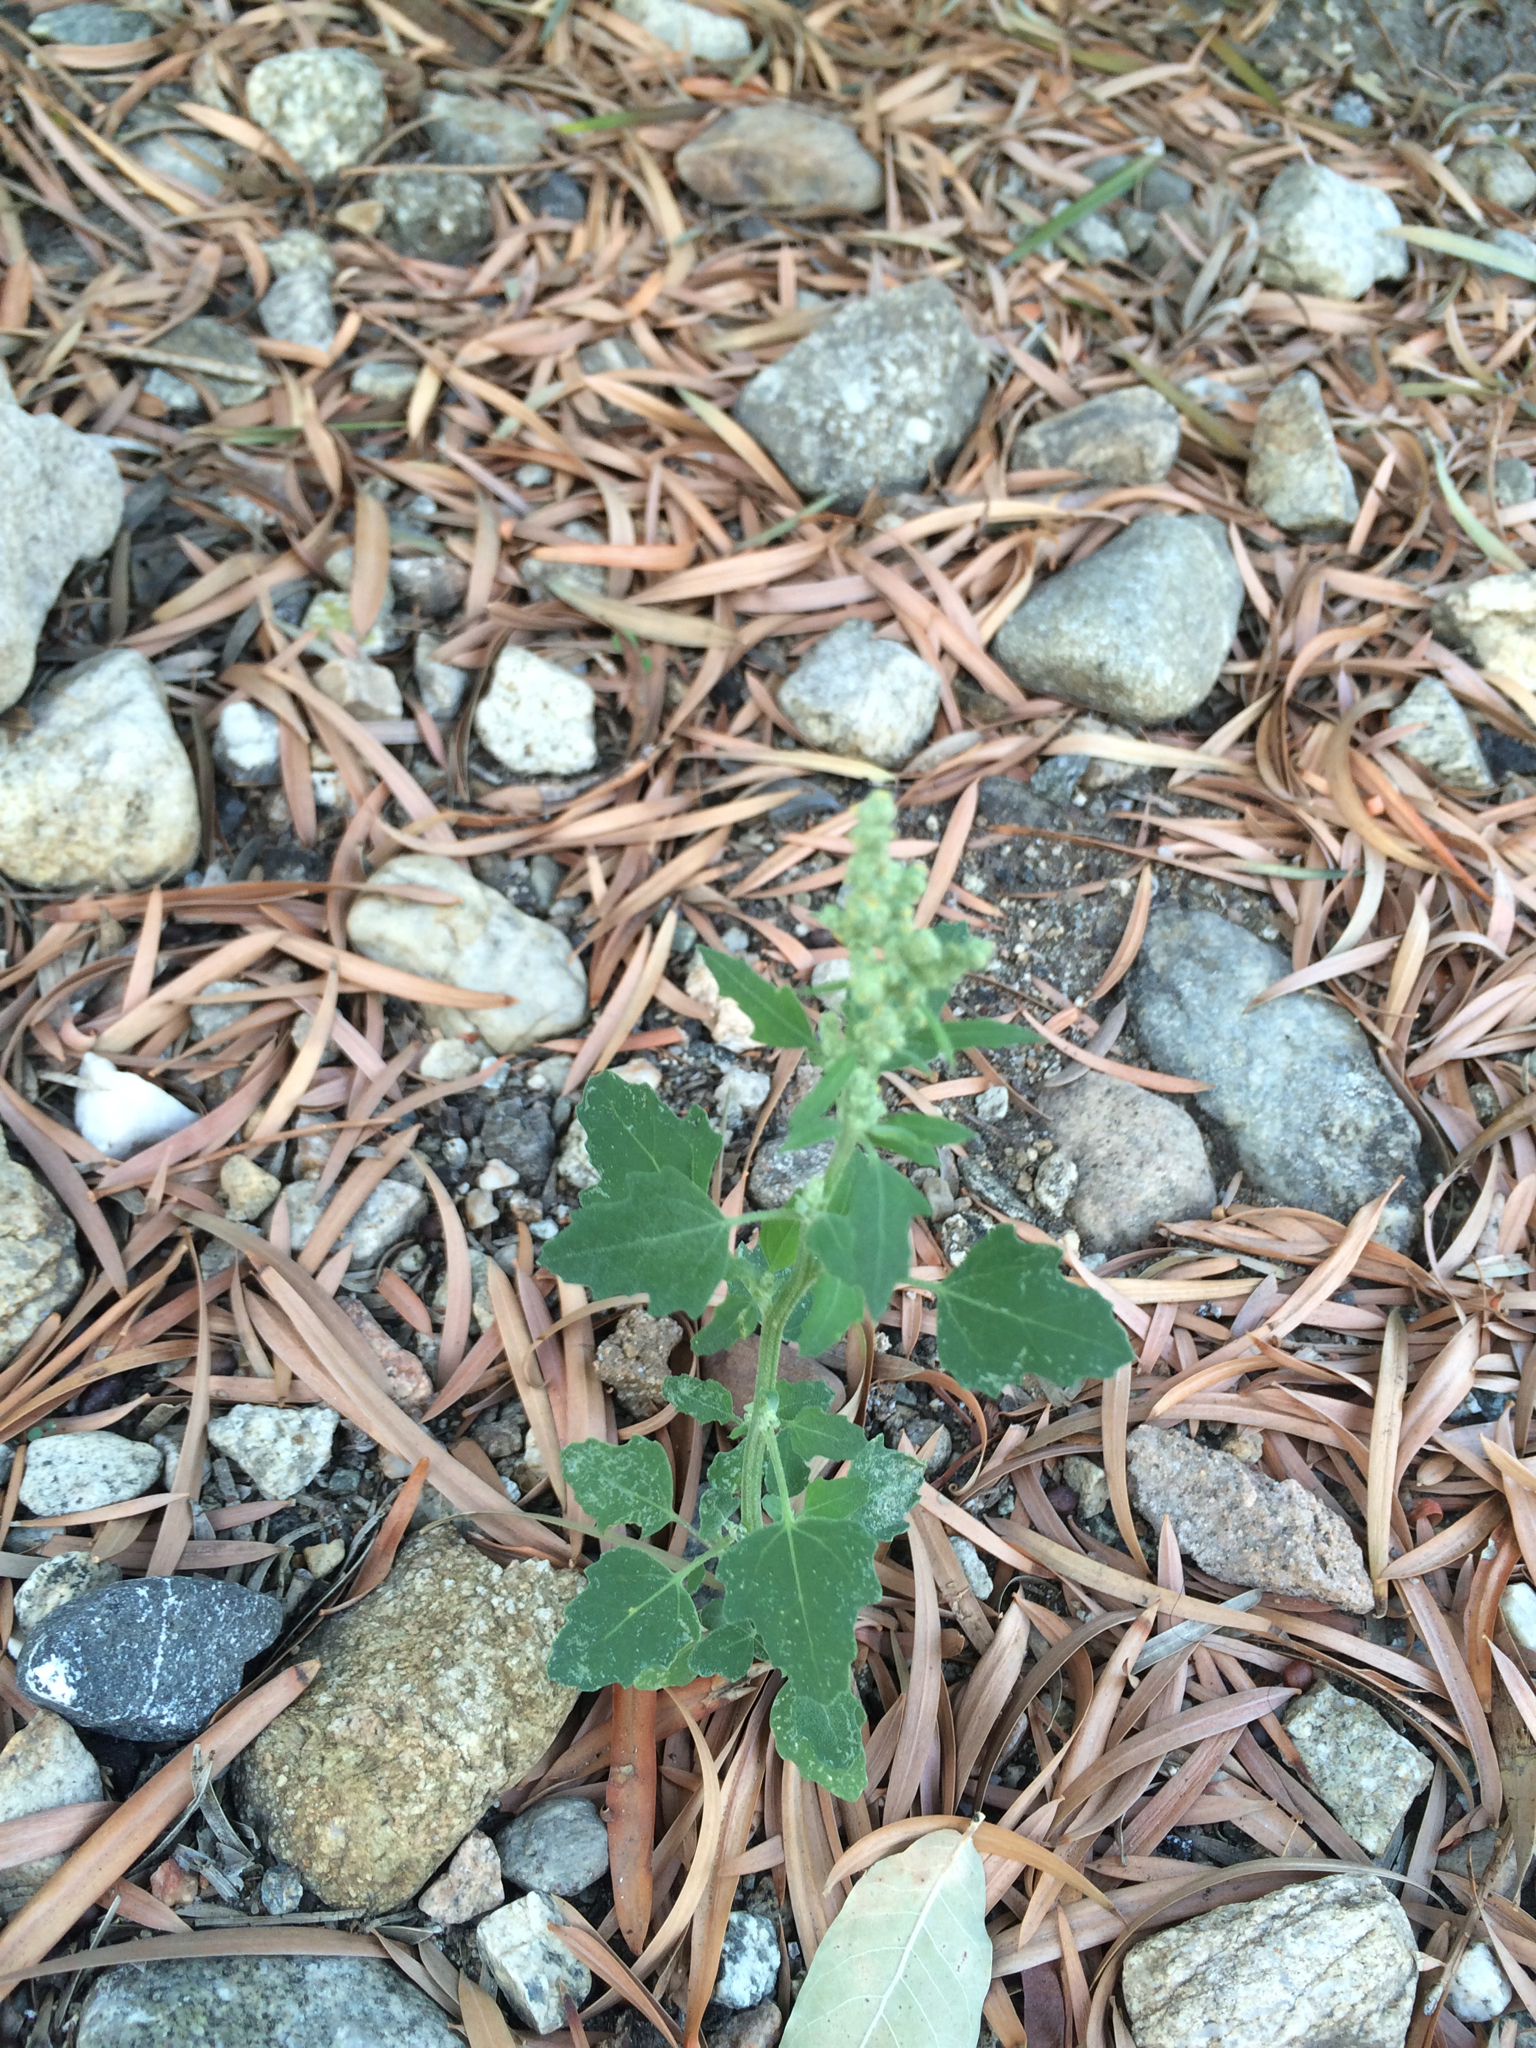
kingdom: Plantae
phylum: Tracheophyta
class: Magnoliopsida
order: Caryophyllales
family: Amaranthaceae
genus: Chenopodiastrum
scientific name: Chenopodiastrum murale
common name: Sowbane
